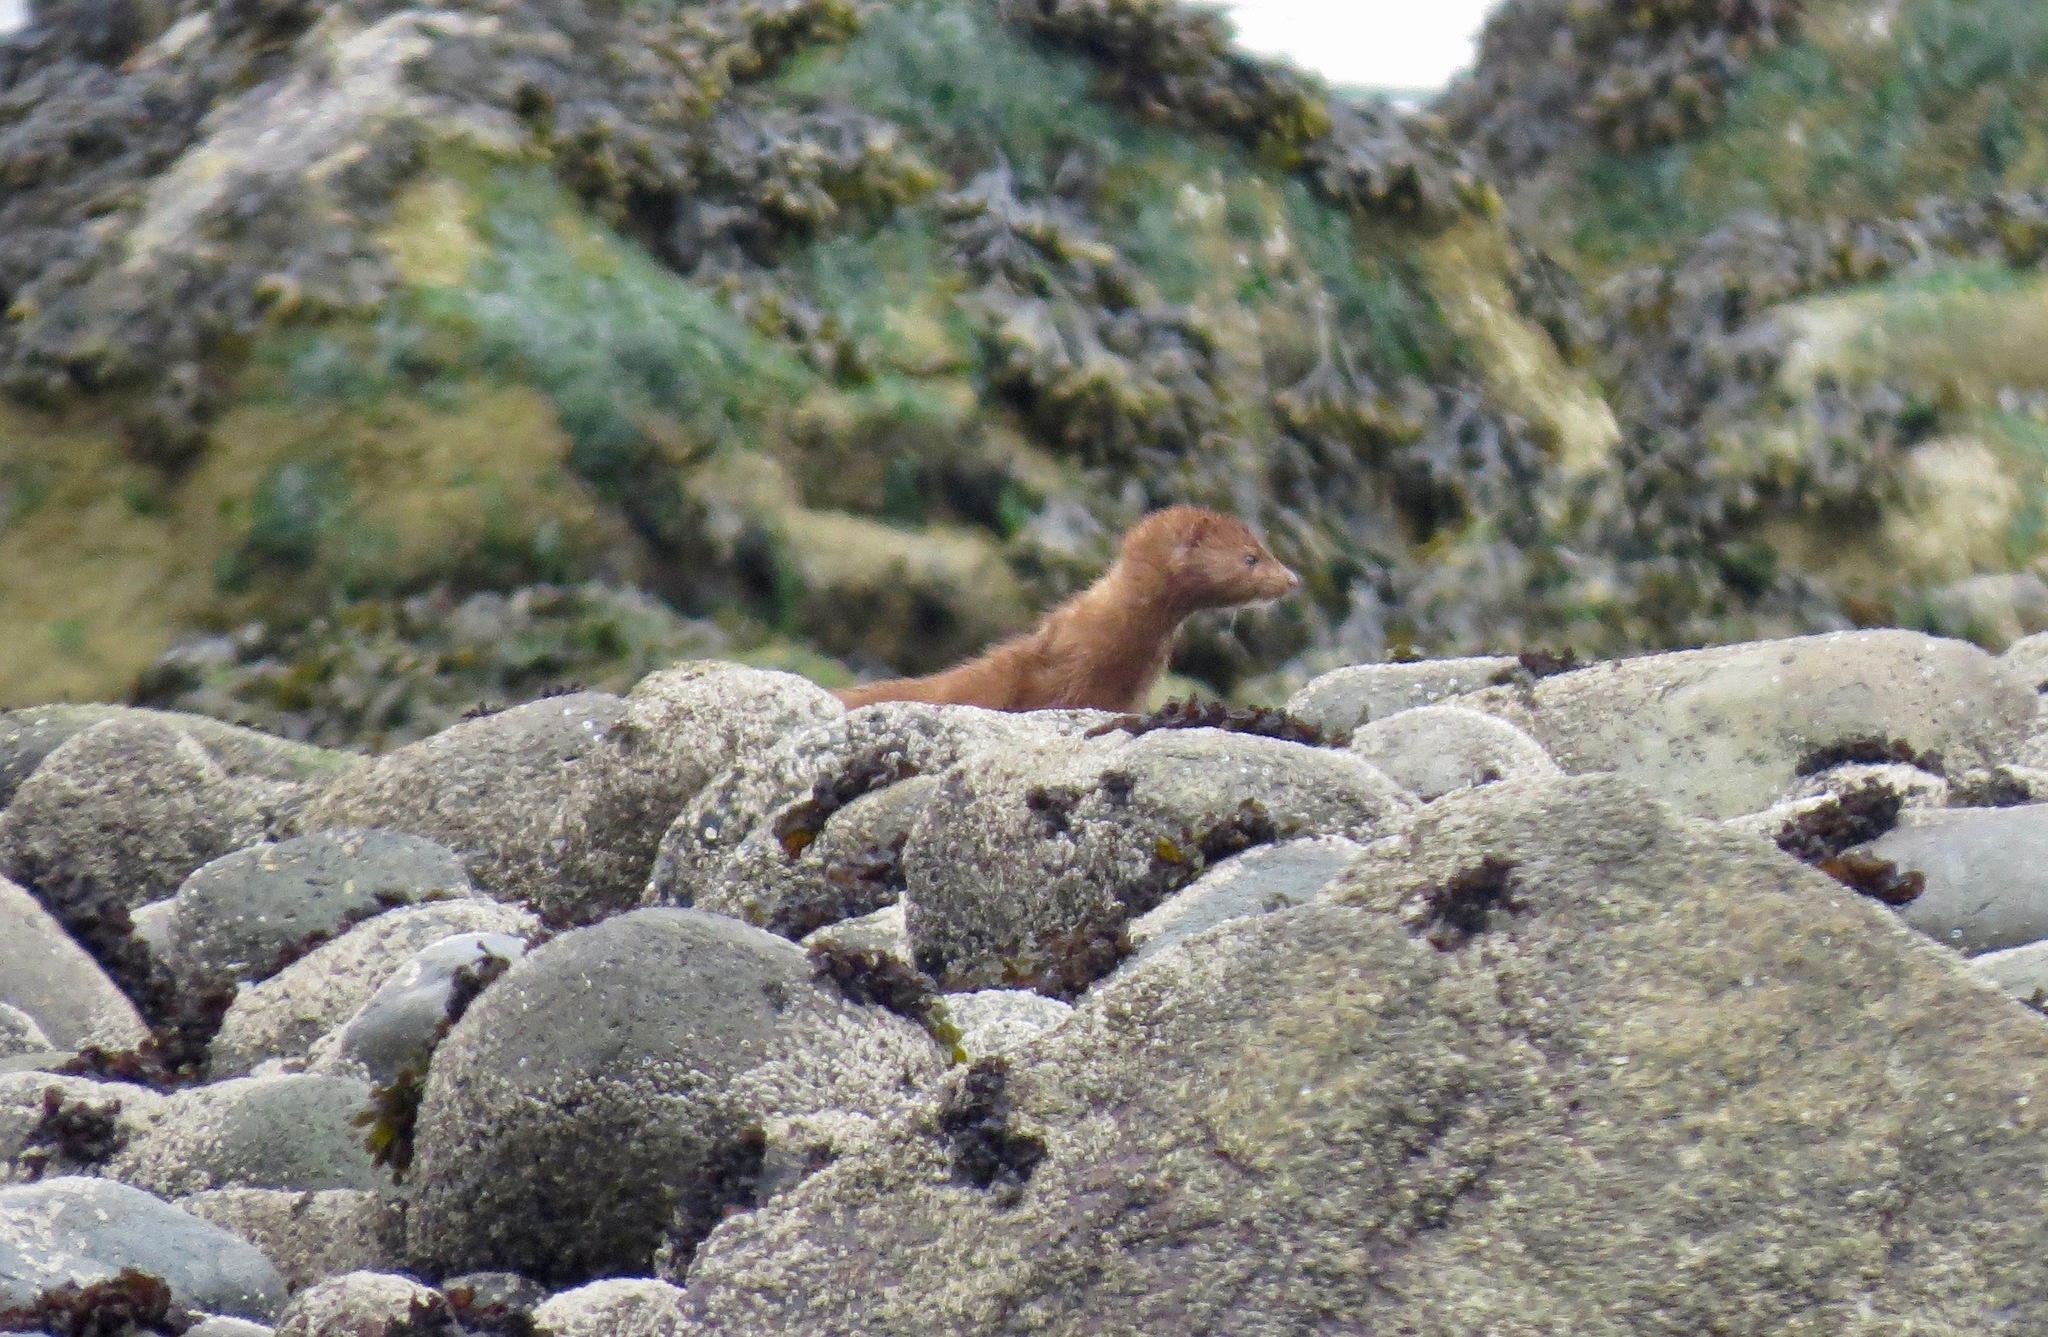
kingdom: Animalia
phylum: Chordata
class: Mammalia
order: Carnivora
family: Mustelidae
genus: Mustela
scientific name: Mustela
